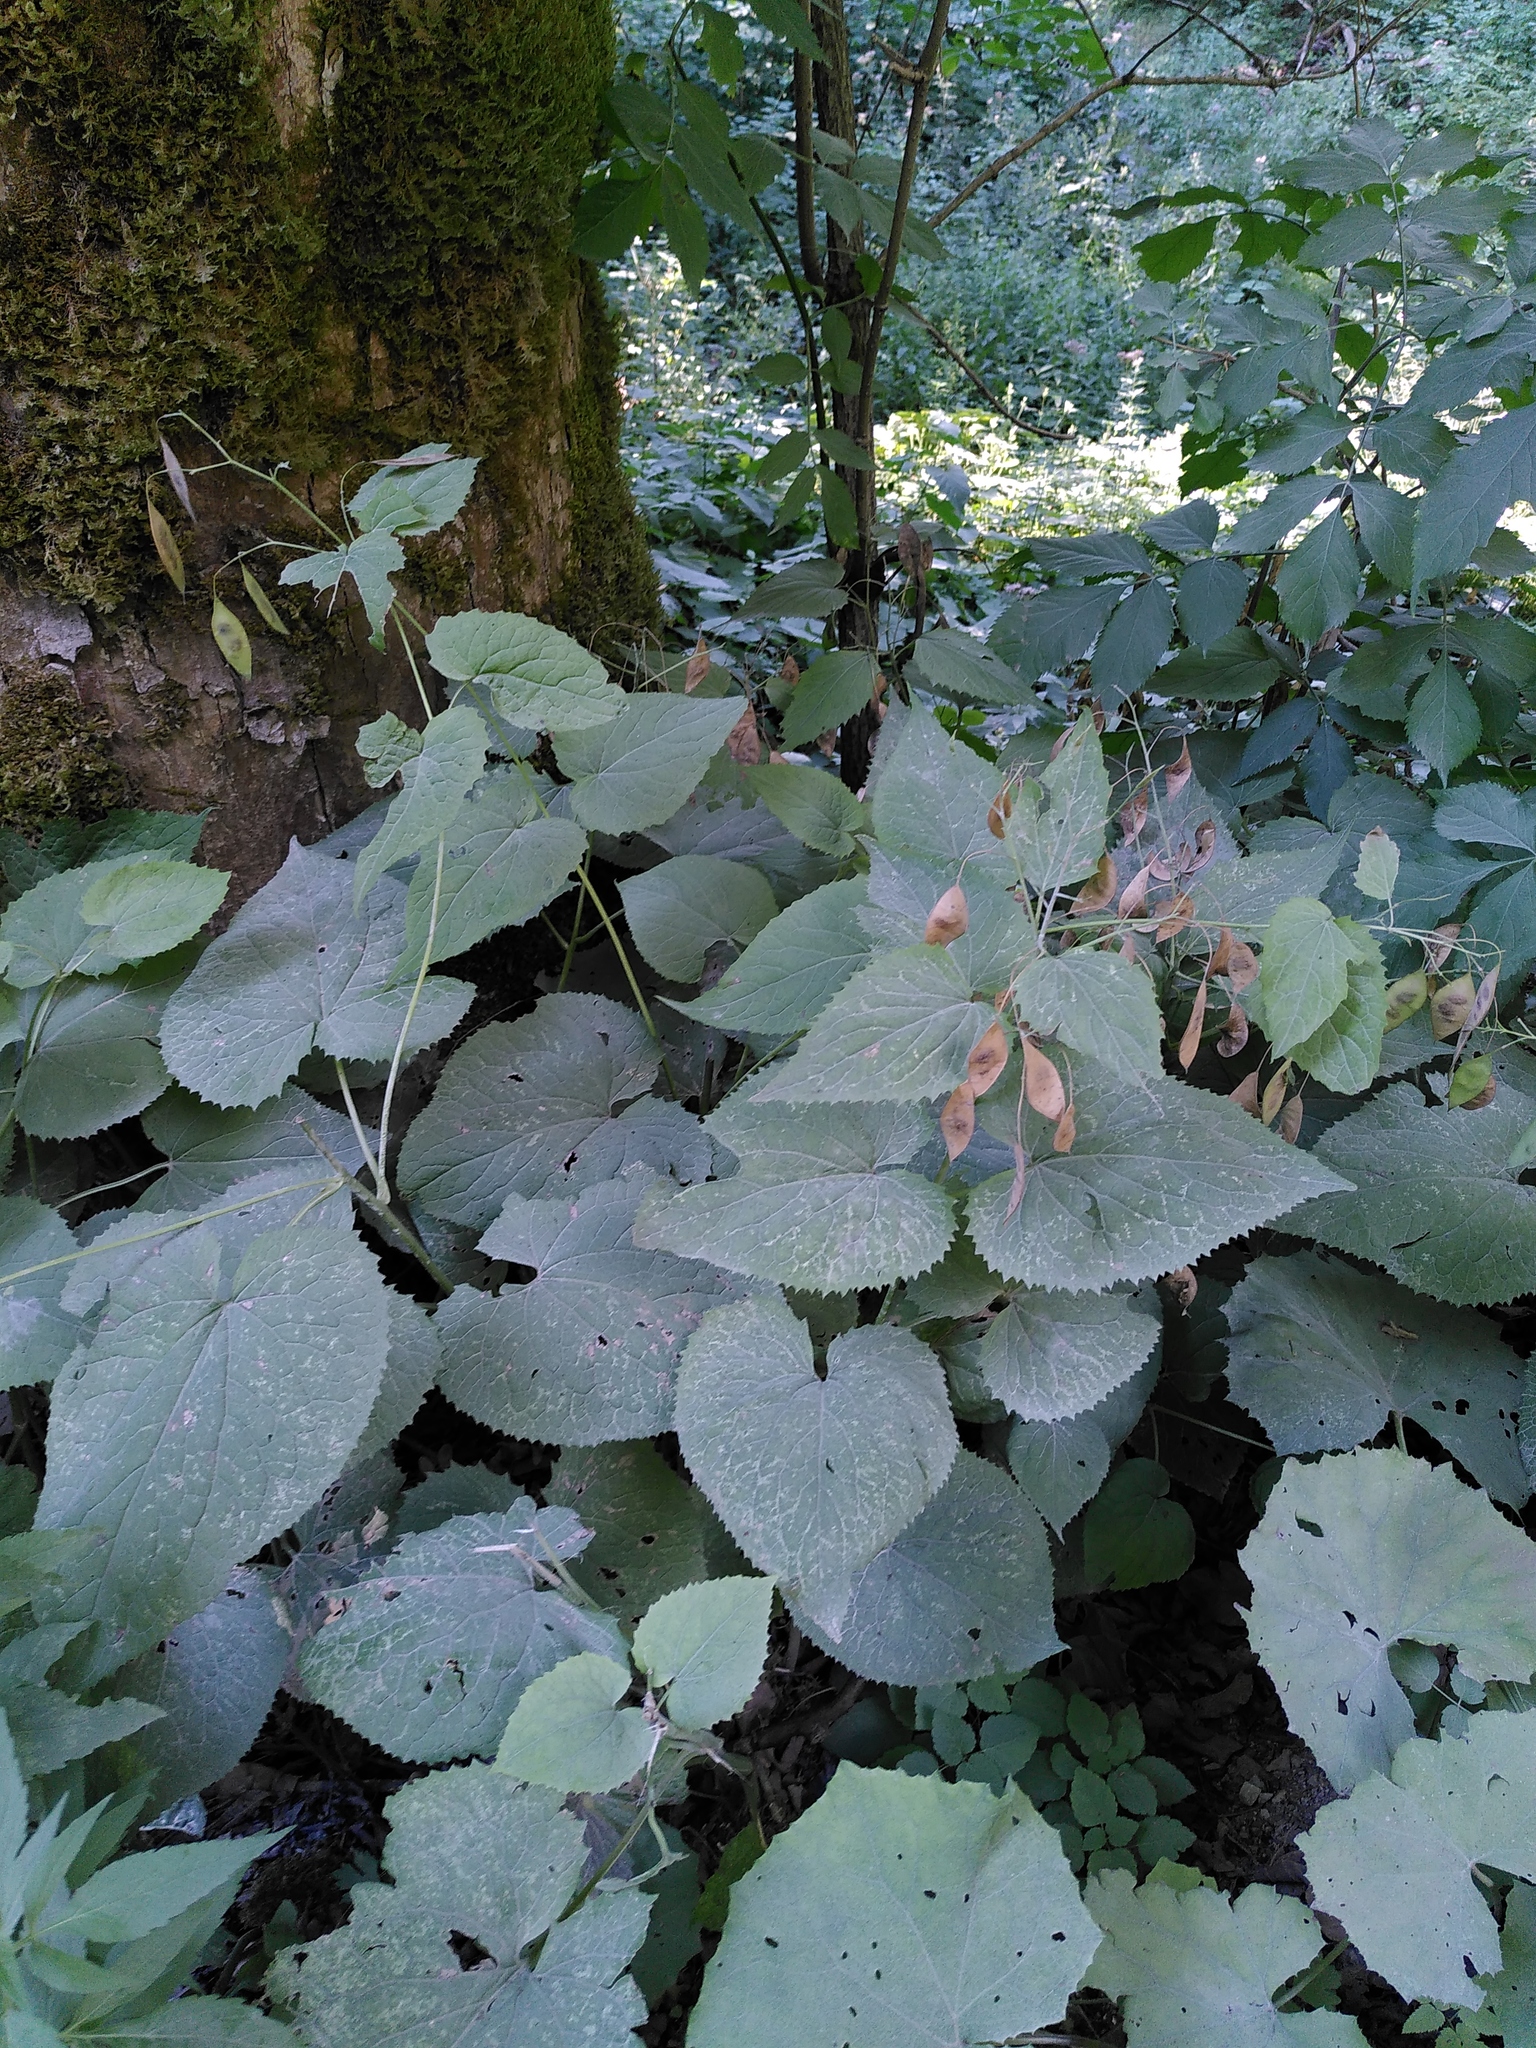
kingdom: Plantae
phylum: Tracheophyta
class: Magnoliopsida
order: Brassicales
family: Brassicaceae
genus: Lunaria
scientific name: Lunaria rediviva
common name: Perennial honesty
